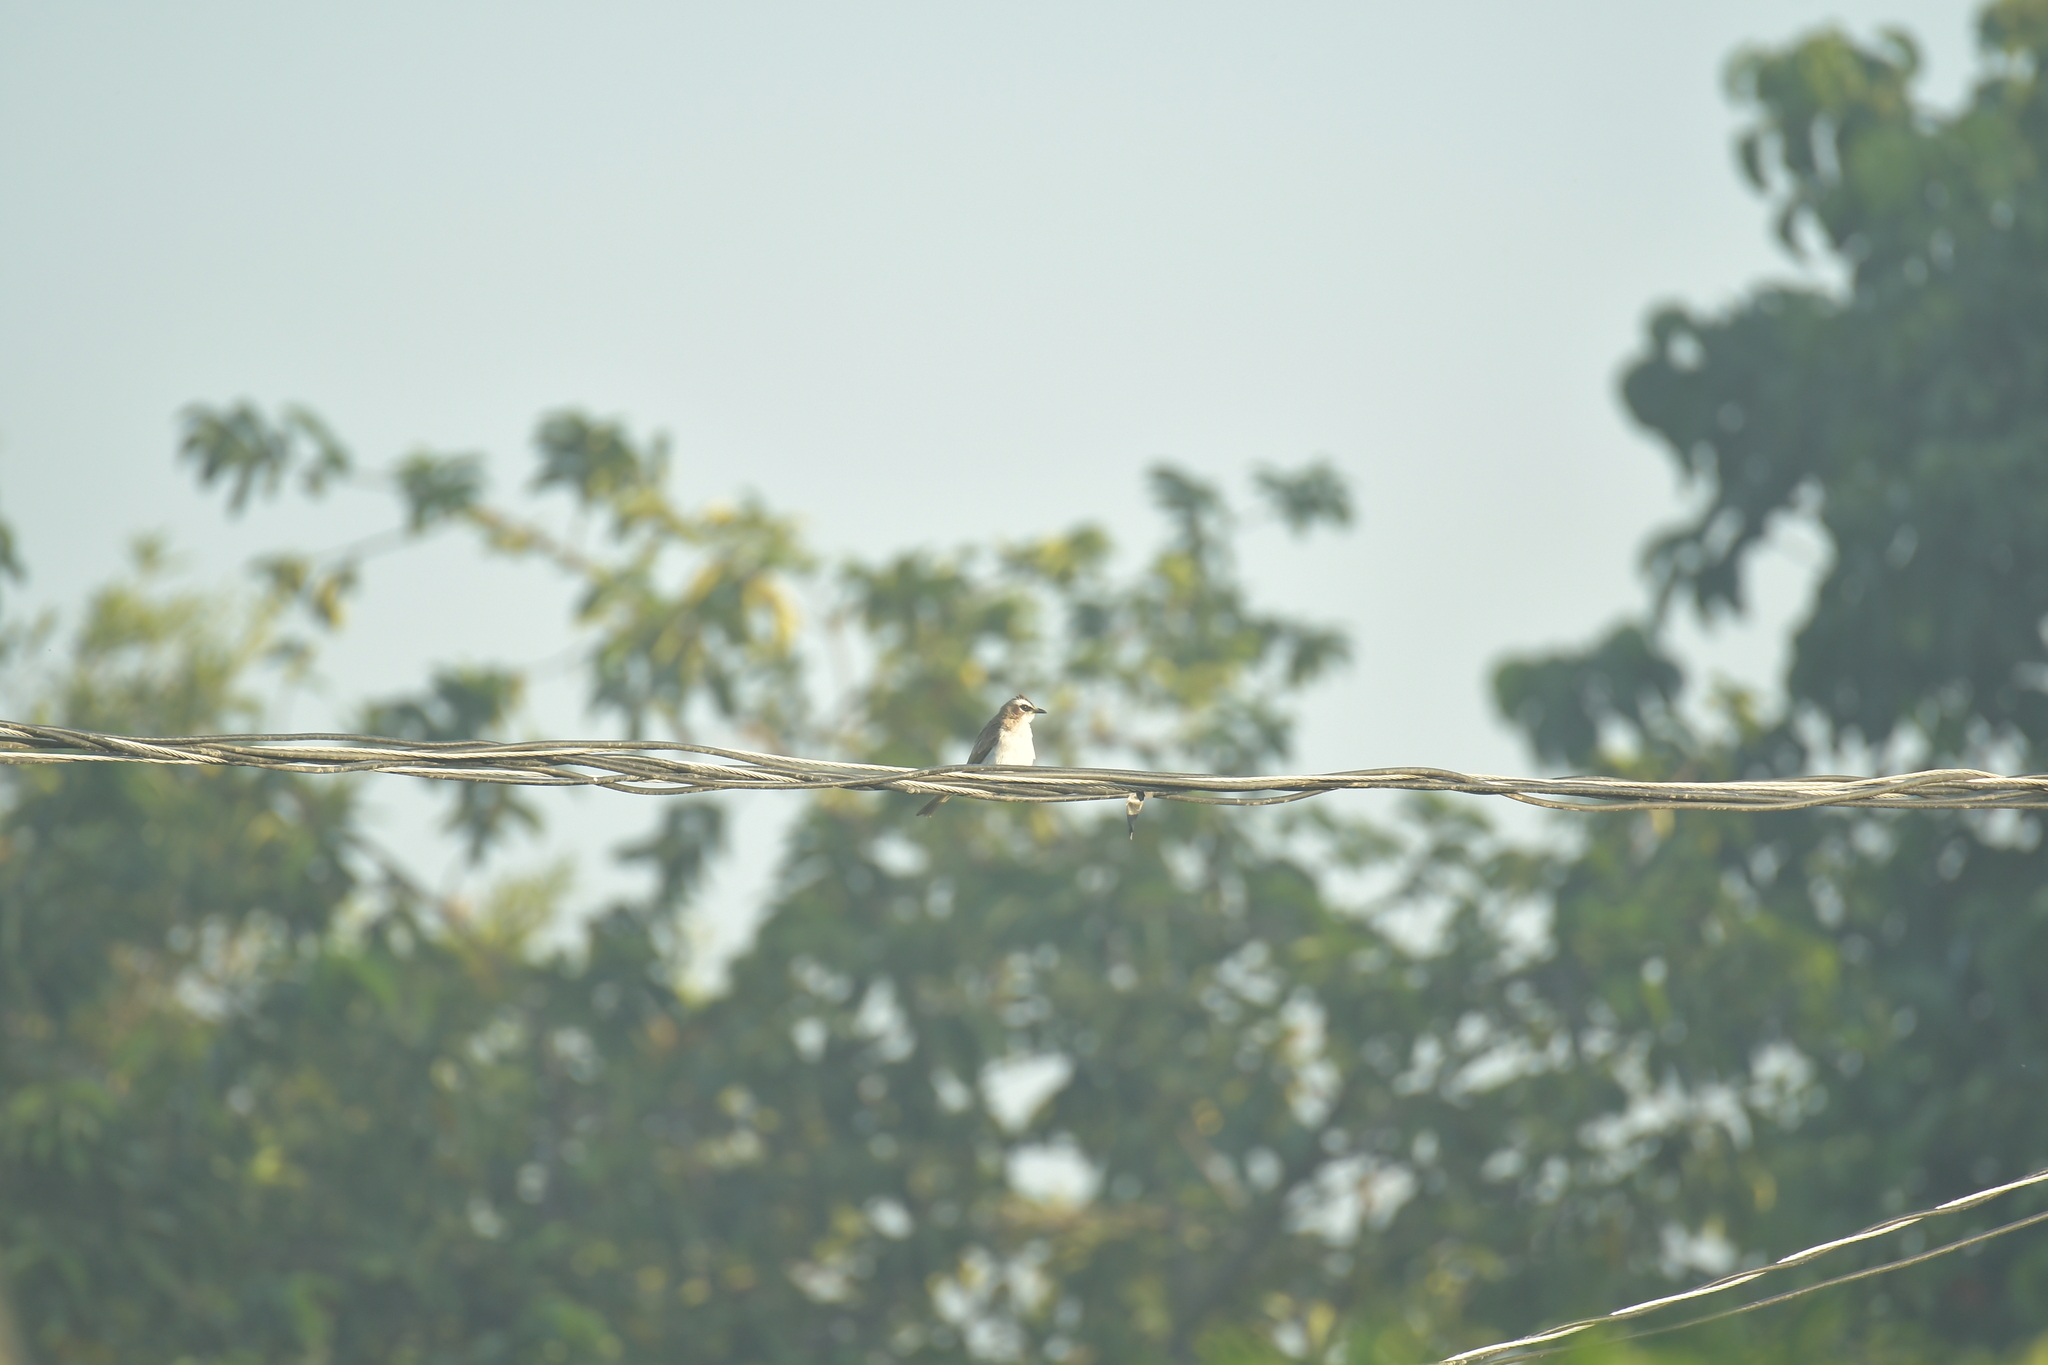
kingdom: Animalia
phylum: Chordata
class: Aves
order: Passeriformes
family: Pycnonotidae
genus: Pycnonotus
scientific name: Pycnonotus goiavier
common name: Yellow-vented bulbul
